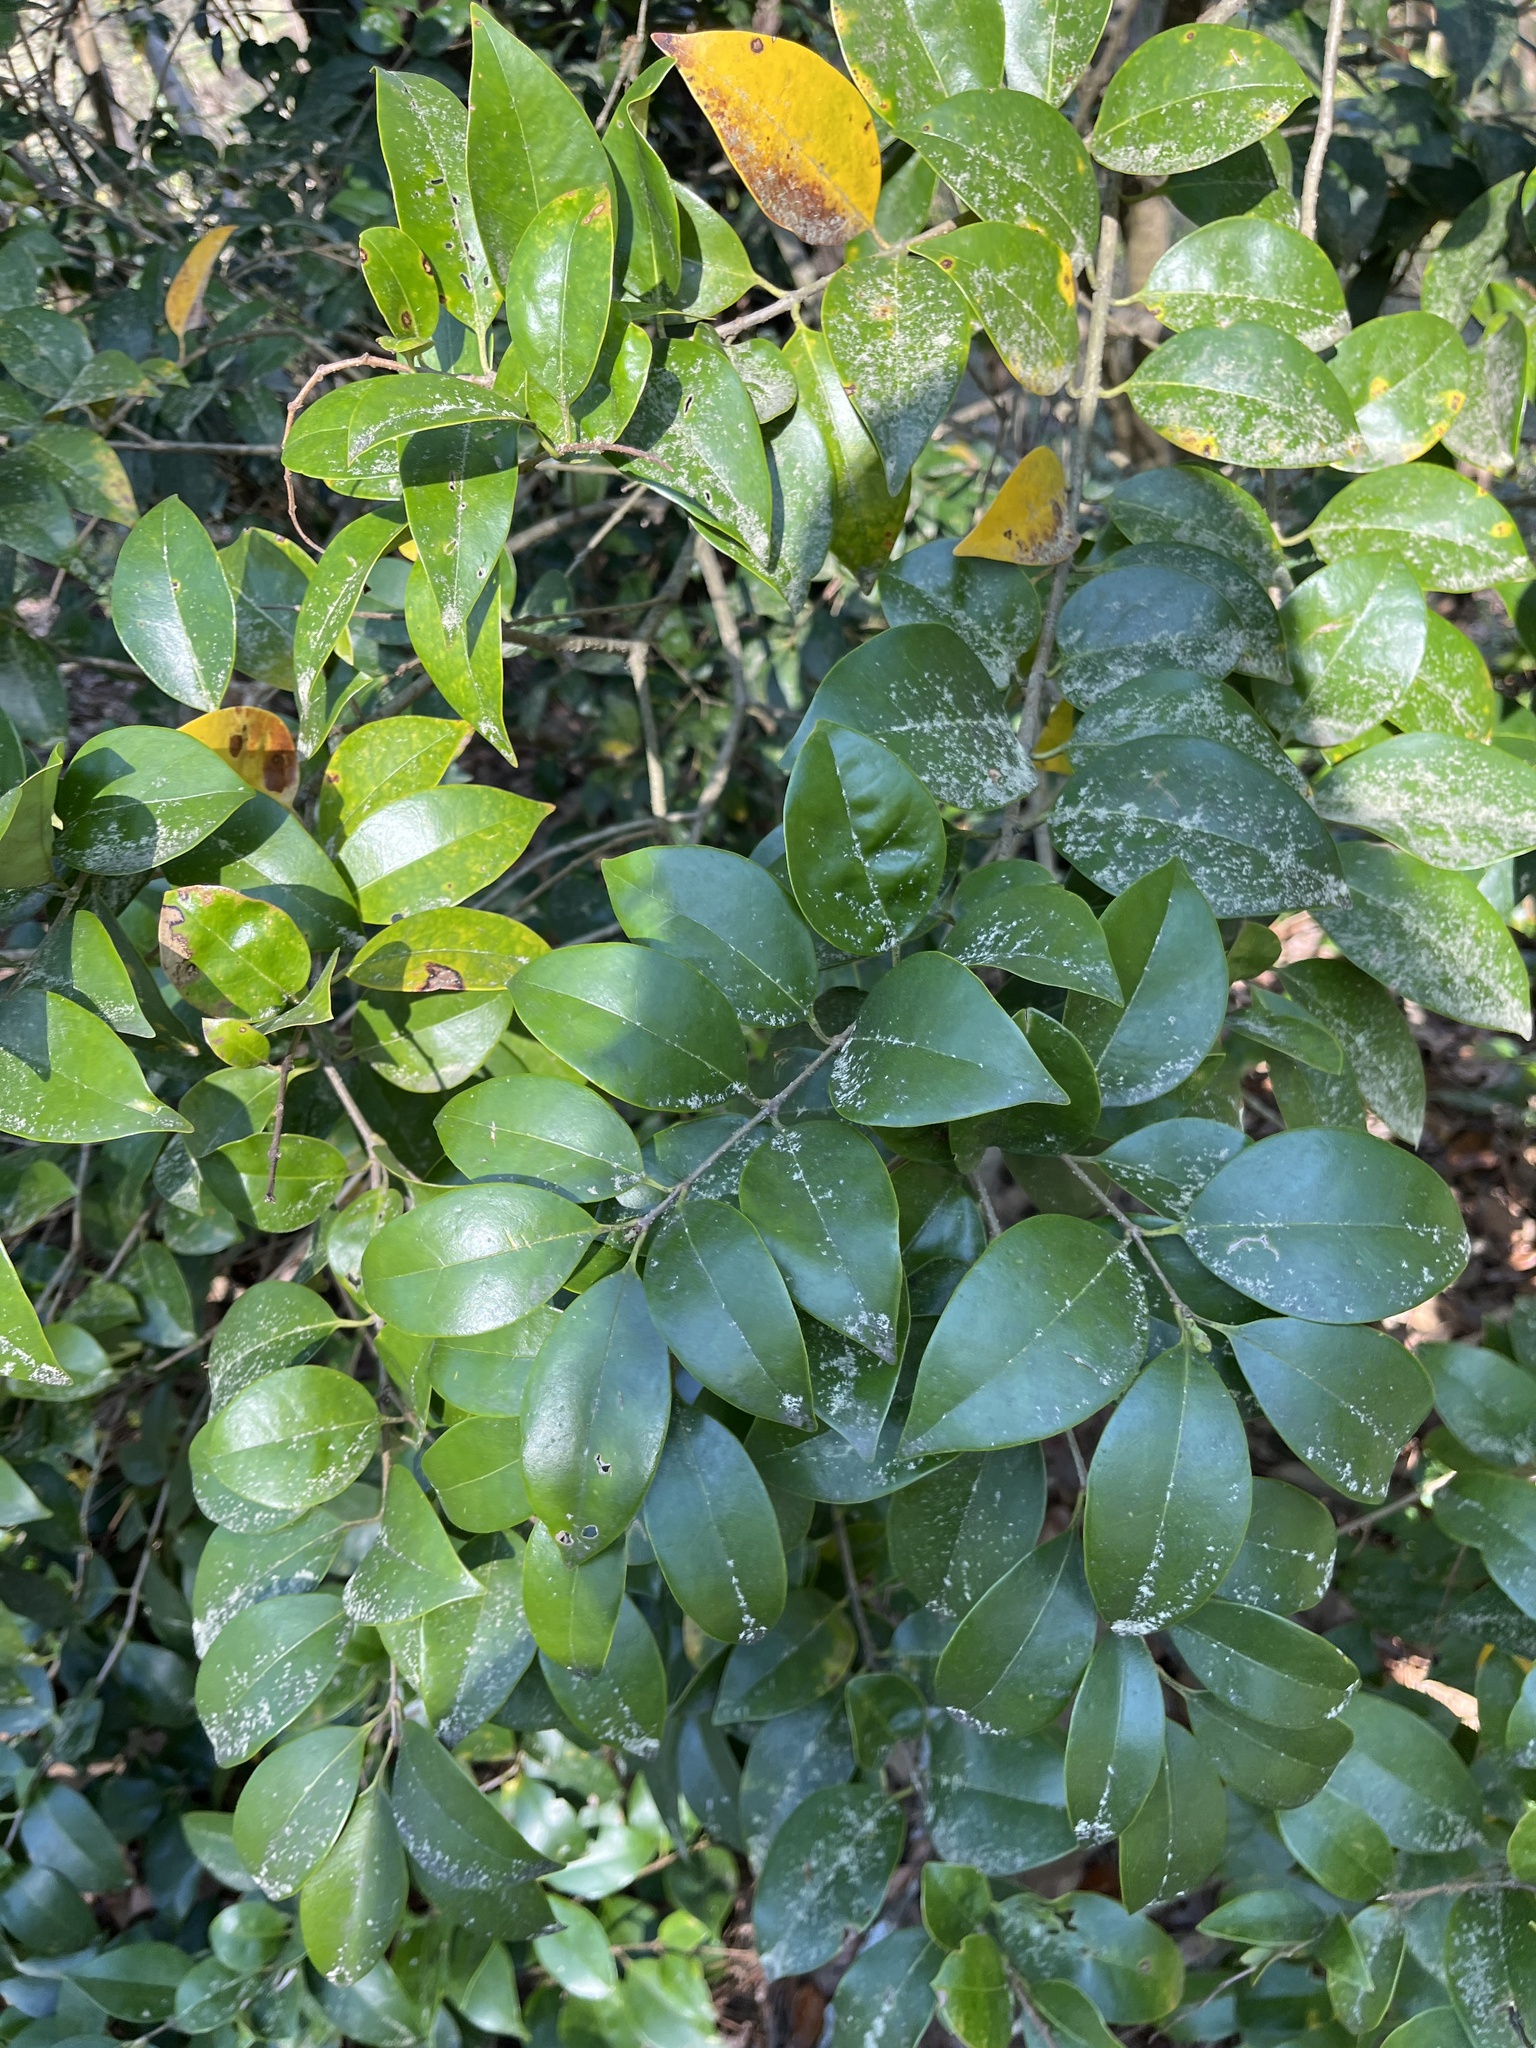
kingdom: Plantae
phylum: Tracheophyta
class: Magnoliopsida
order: Lamiales
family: Oleaceae
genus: Ligustrum
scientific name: Ligustrum japonicum
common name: Japanese privet
